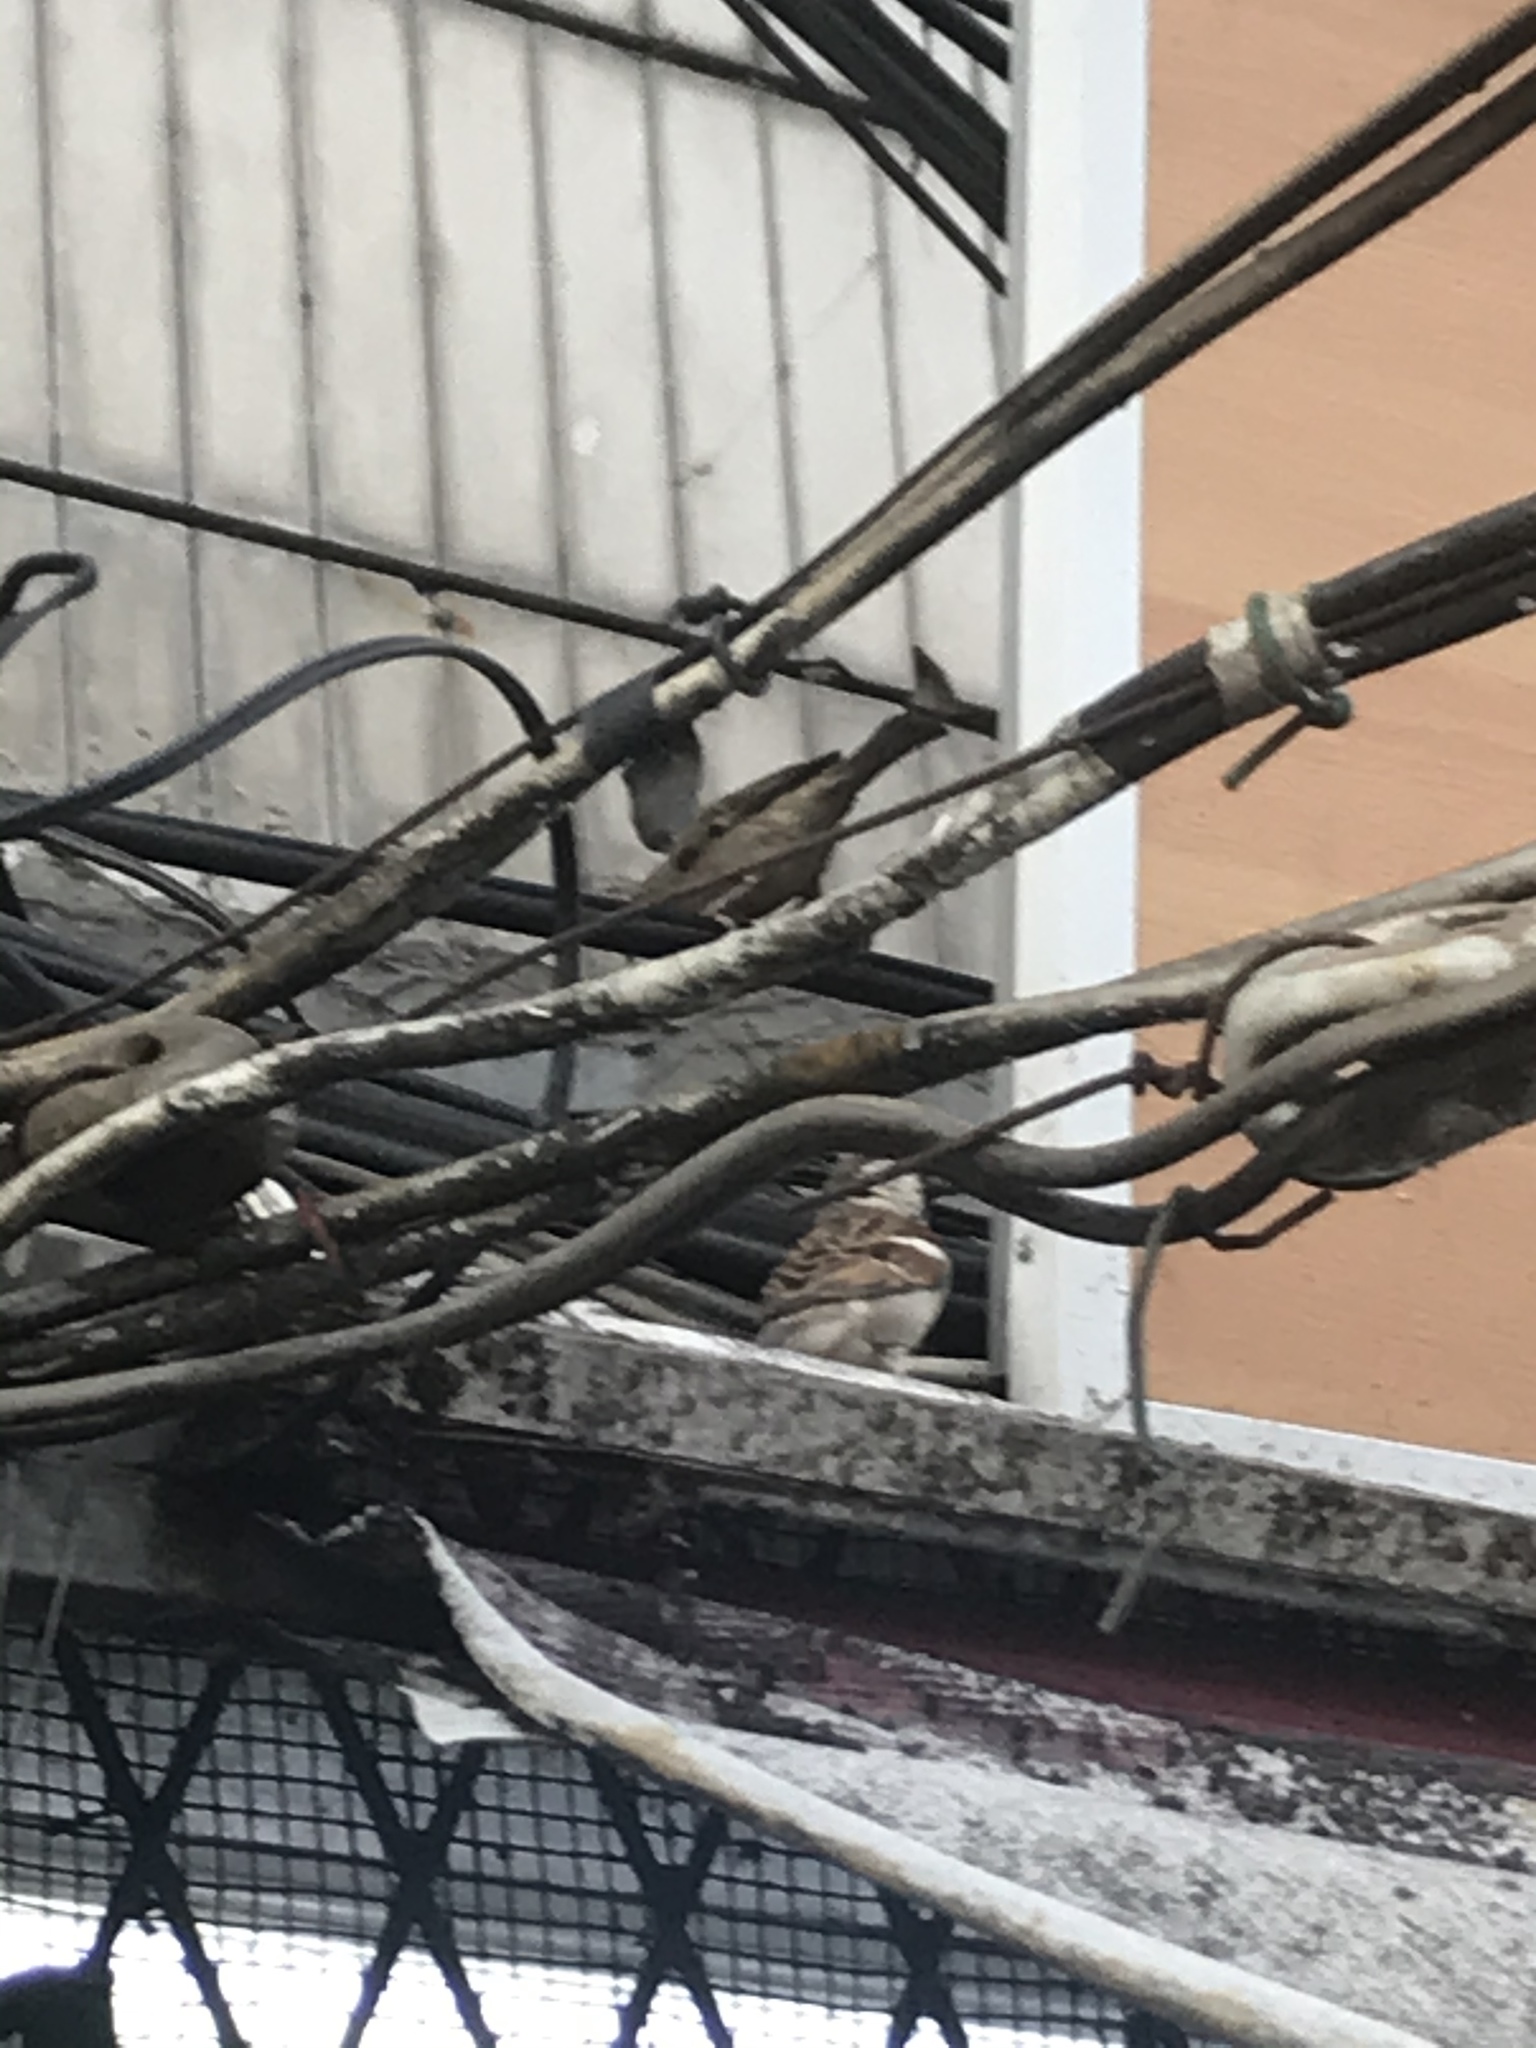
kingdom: Animalia
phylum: Chordata
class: Aves
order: Passeriformes
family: Passeridae
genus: Passer
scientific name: Passer montanus
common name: Eurasian tree sparrow
